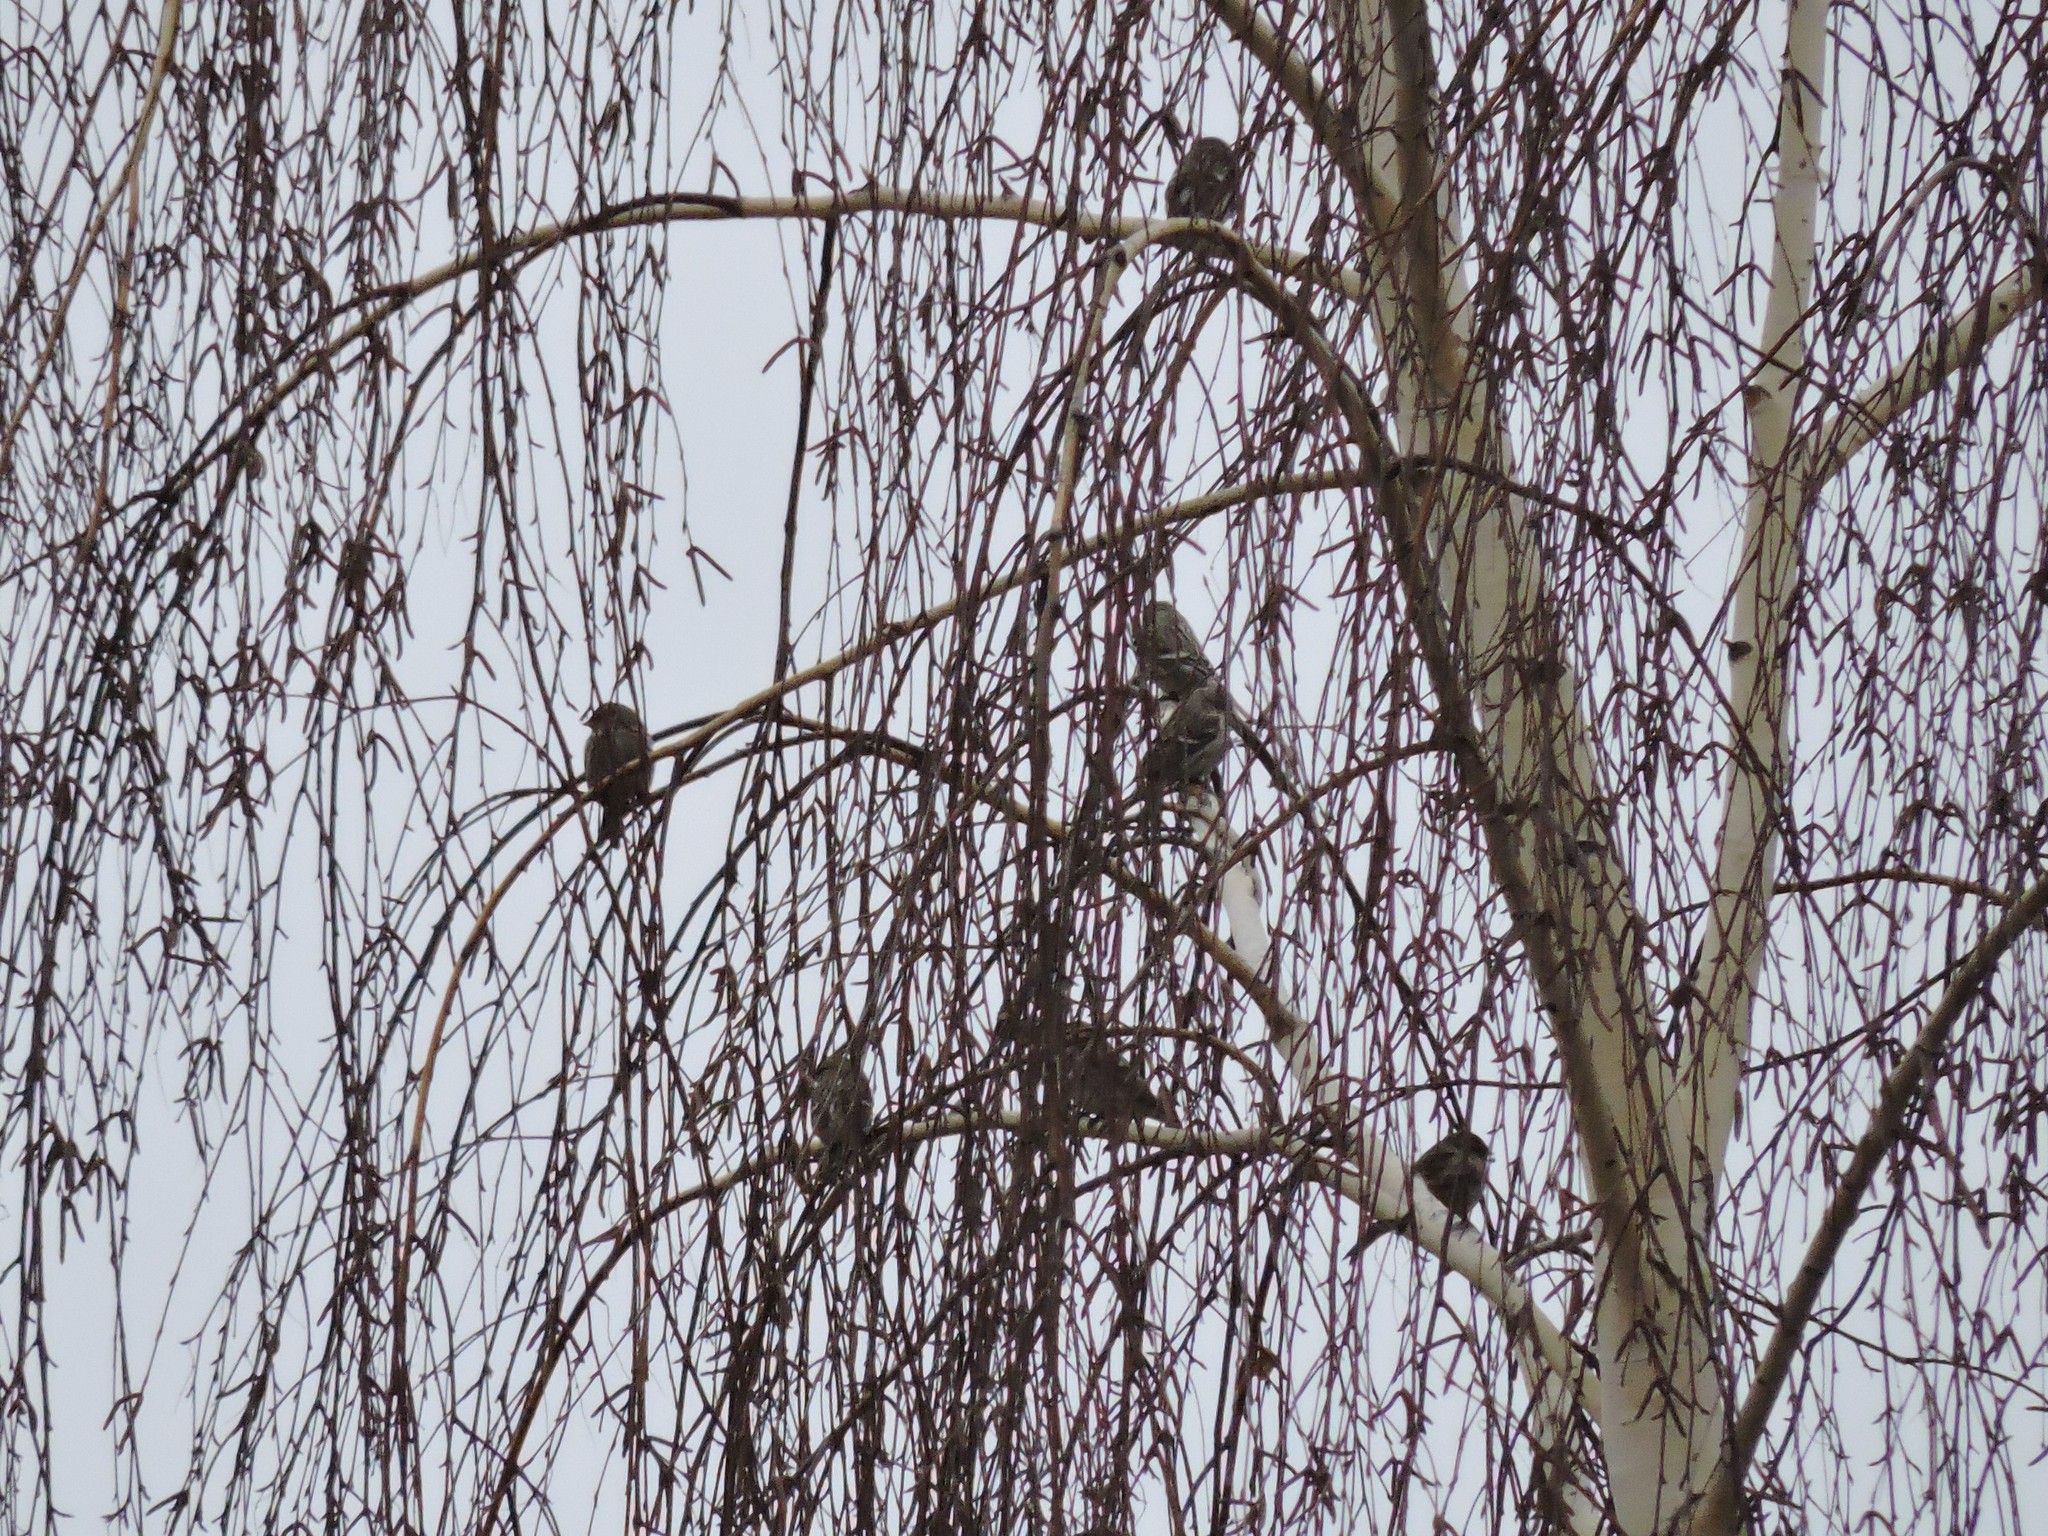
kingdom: Animalia
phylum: Chordata
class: Aves
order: Passeriformes
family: Fringillidae
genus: Acanthis
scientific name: Acanthis flammea
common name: Common redpoll
